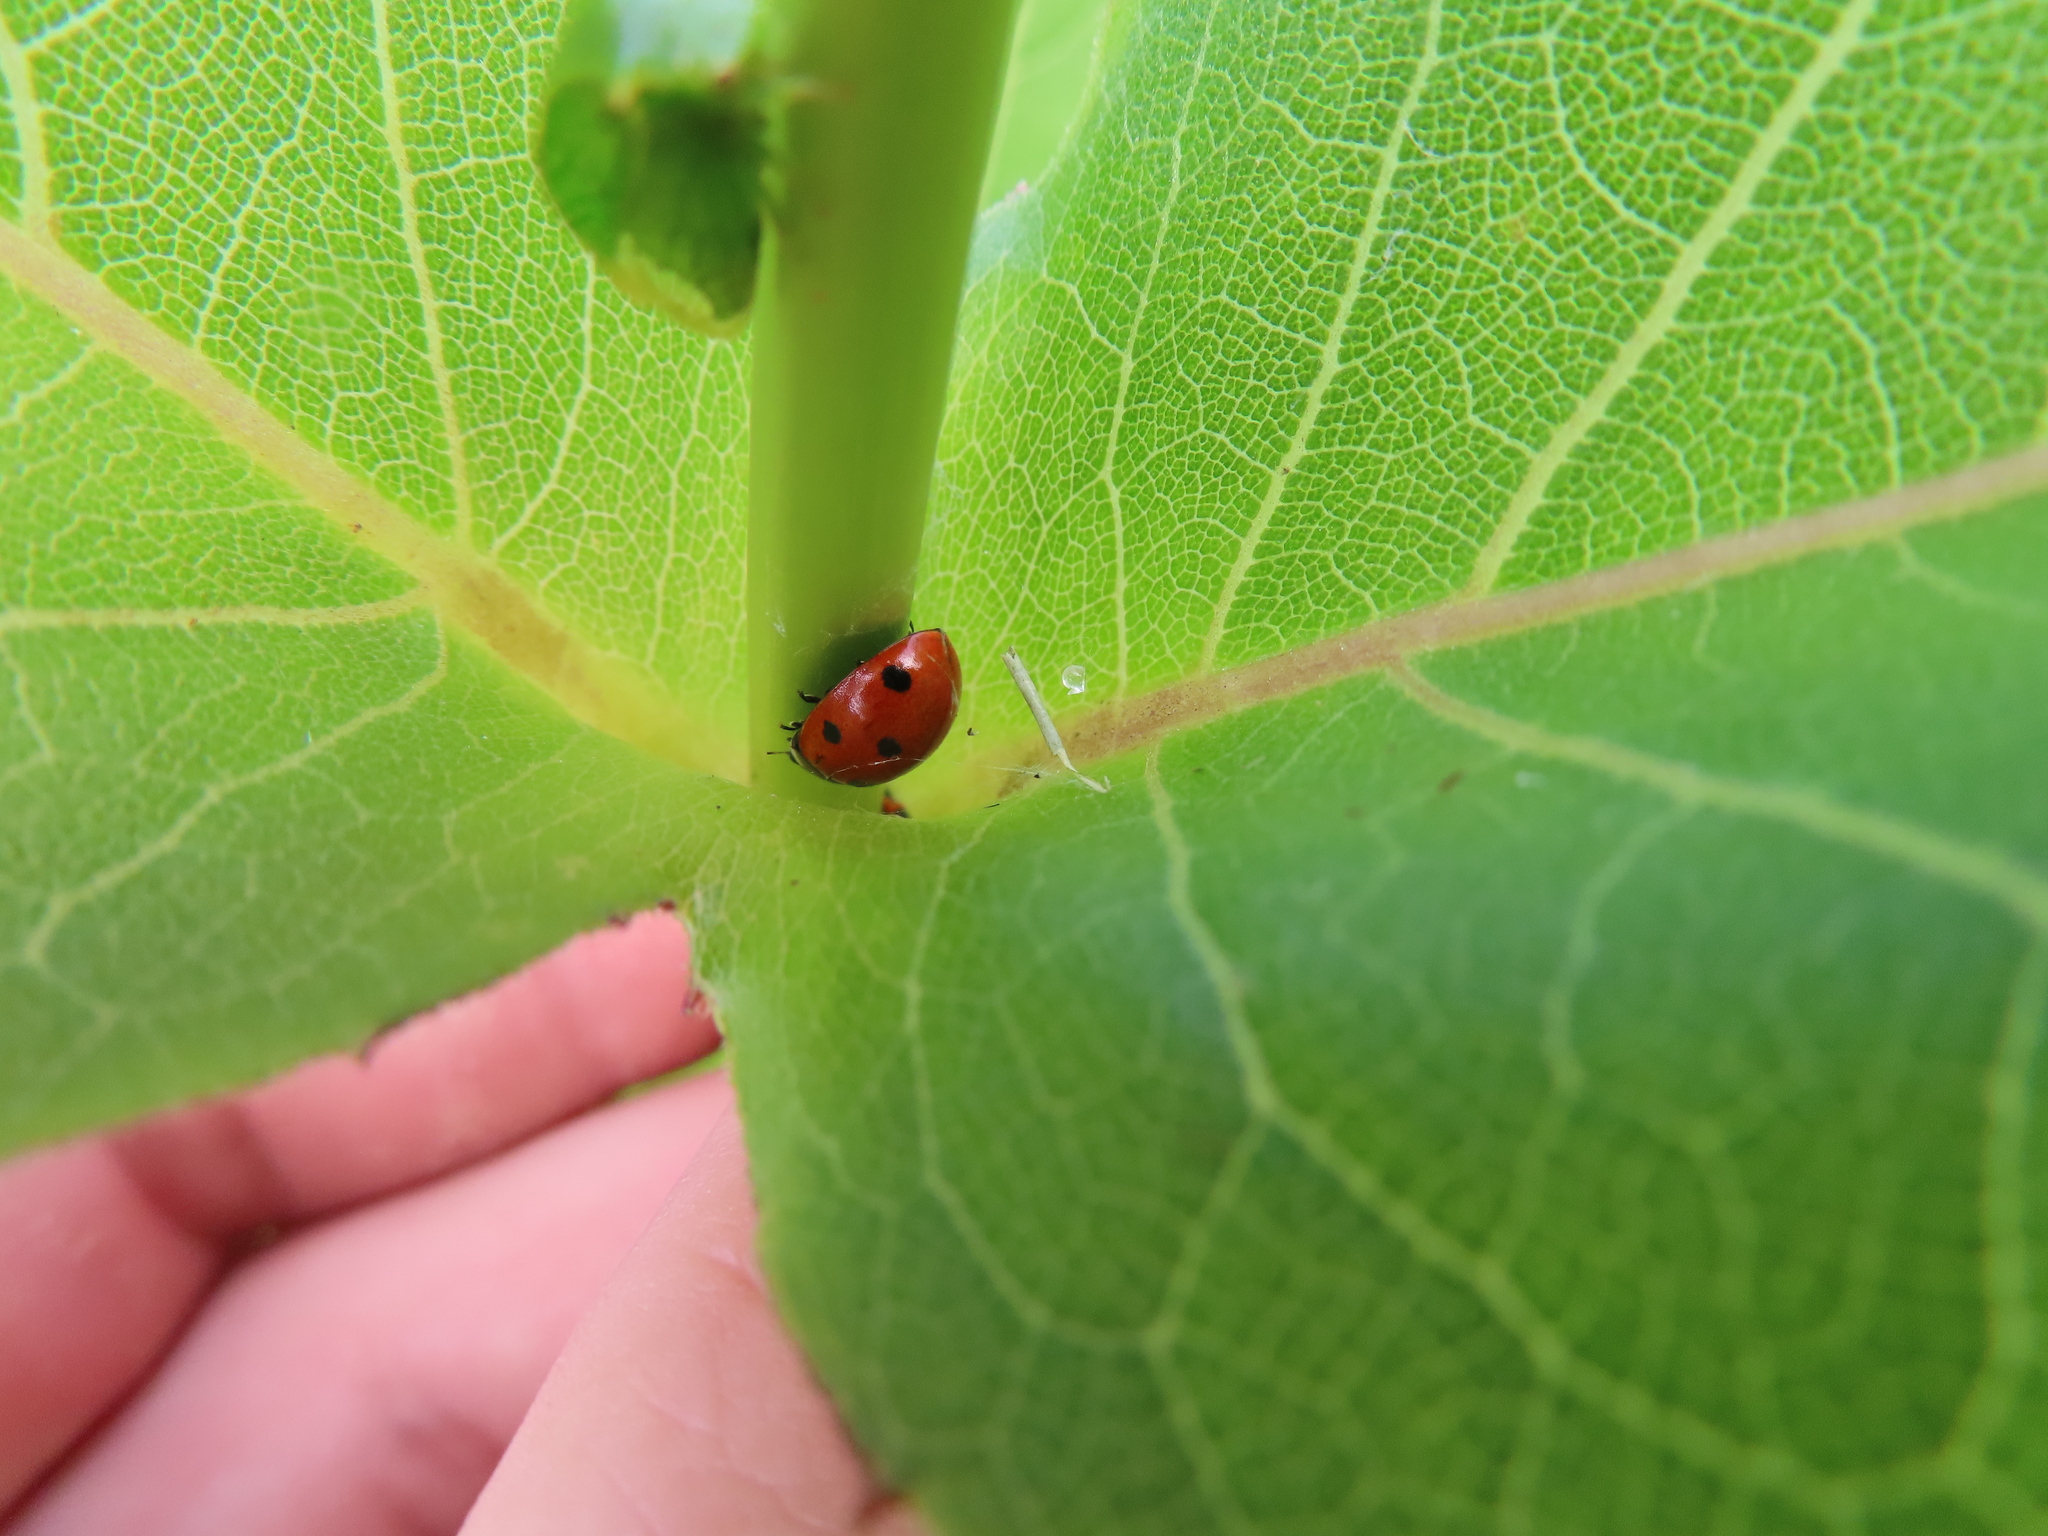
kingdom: Animalia
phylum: Arthropoda
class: Insecta
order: Coleoptera
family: Coccinellidae
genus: Coccinella
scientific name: Coccinella septempunctata
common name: Sevenspotted lady beetle
